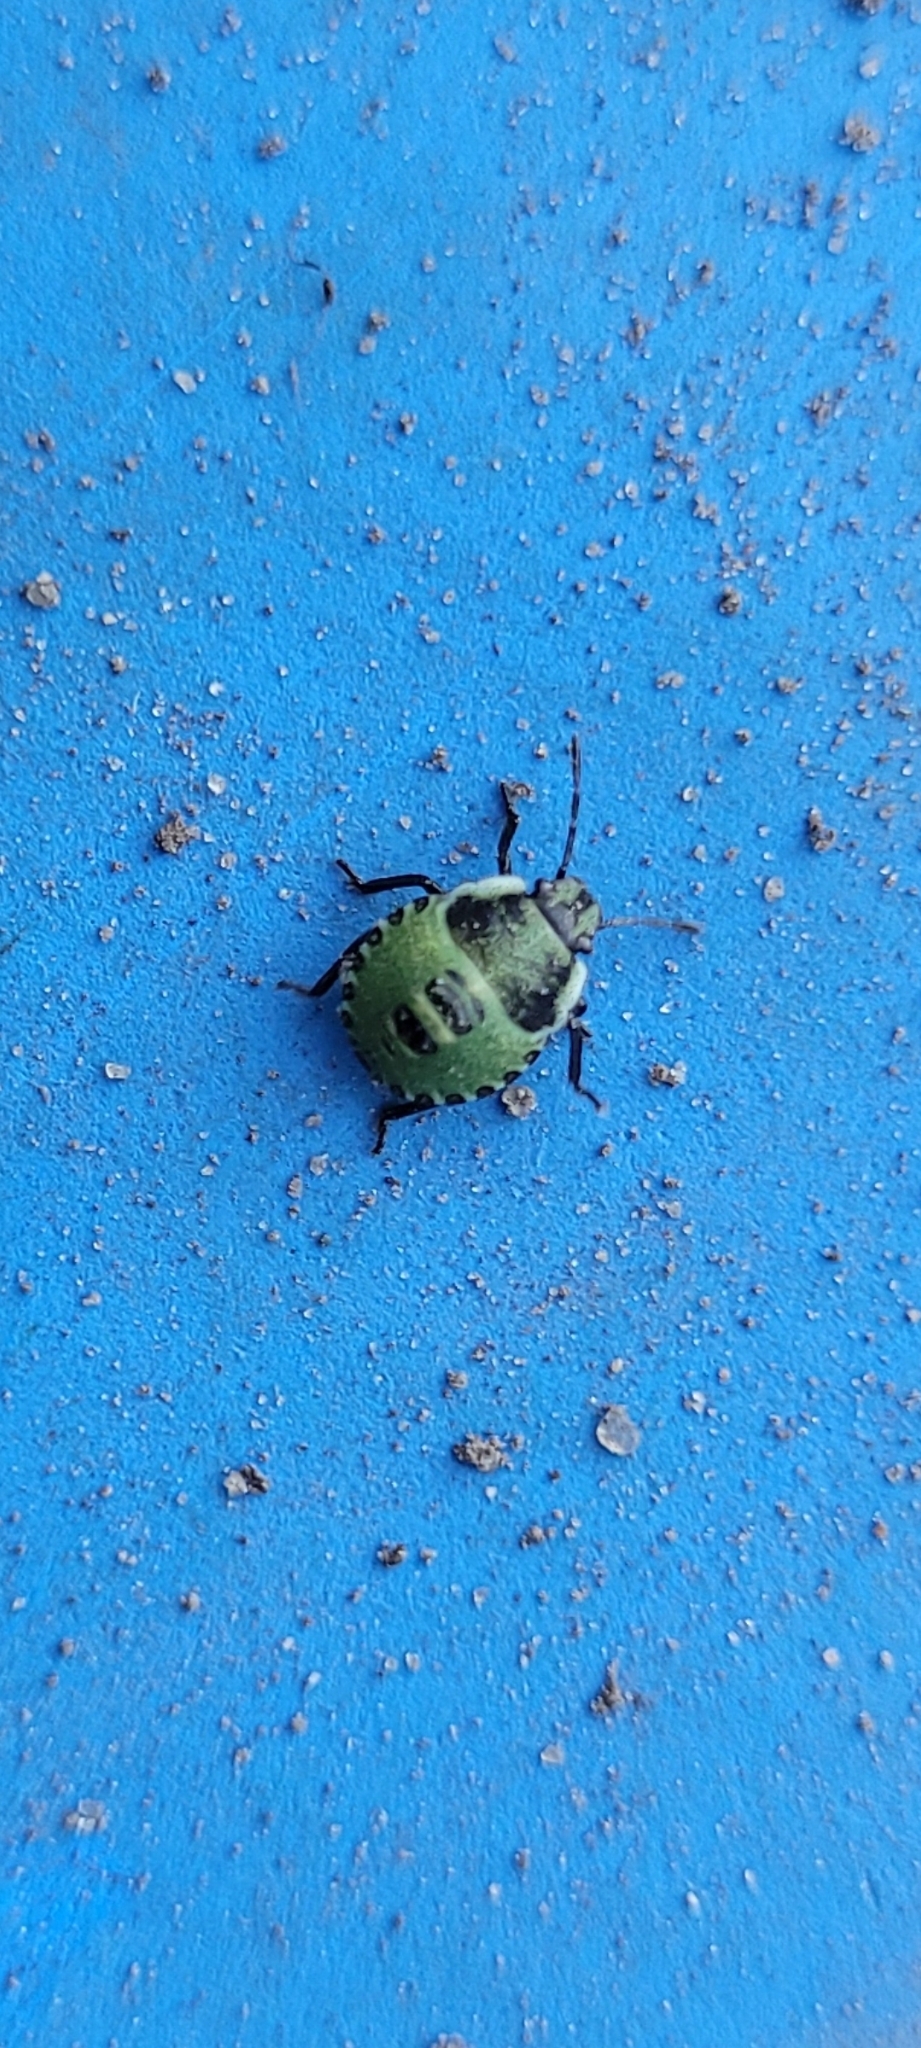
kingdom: Animalia
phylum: Arthropoda
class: Insecta
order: Hemiptera
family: Pentatomidae
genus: Palomena
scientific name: Palomena prasina
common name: Green shieldbug
